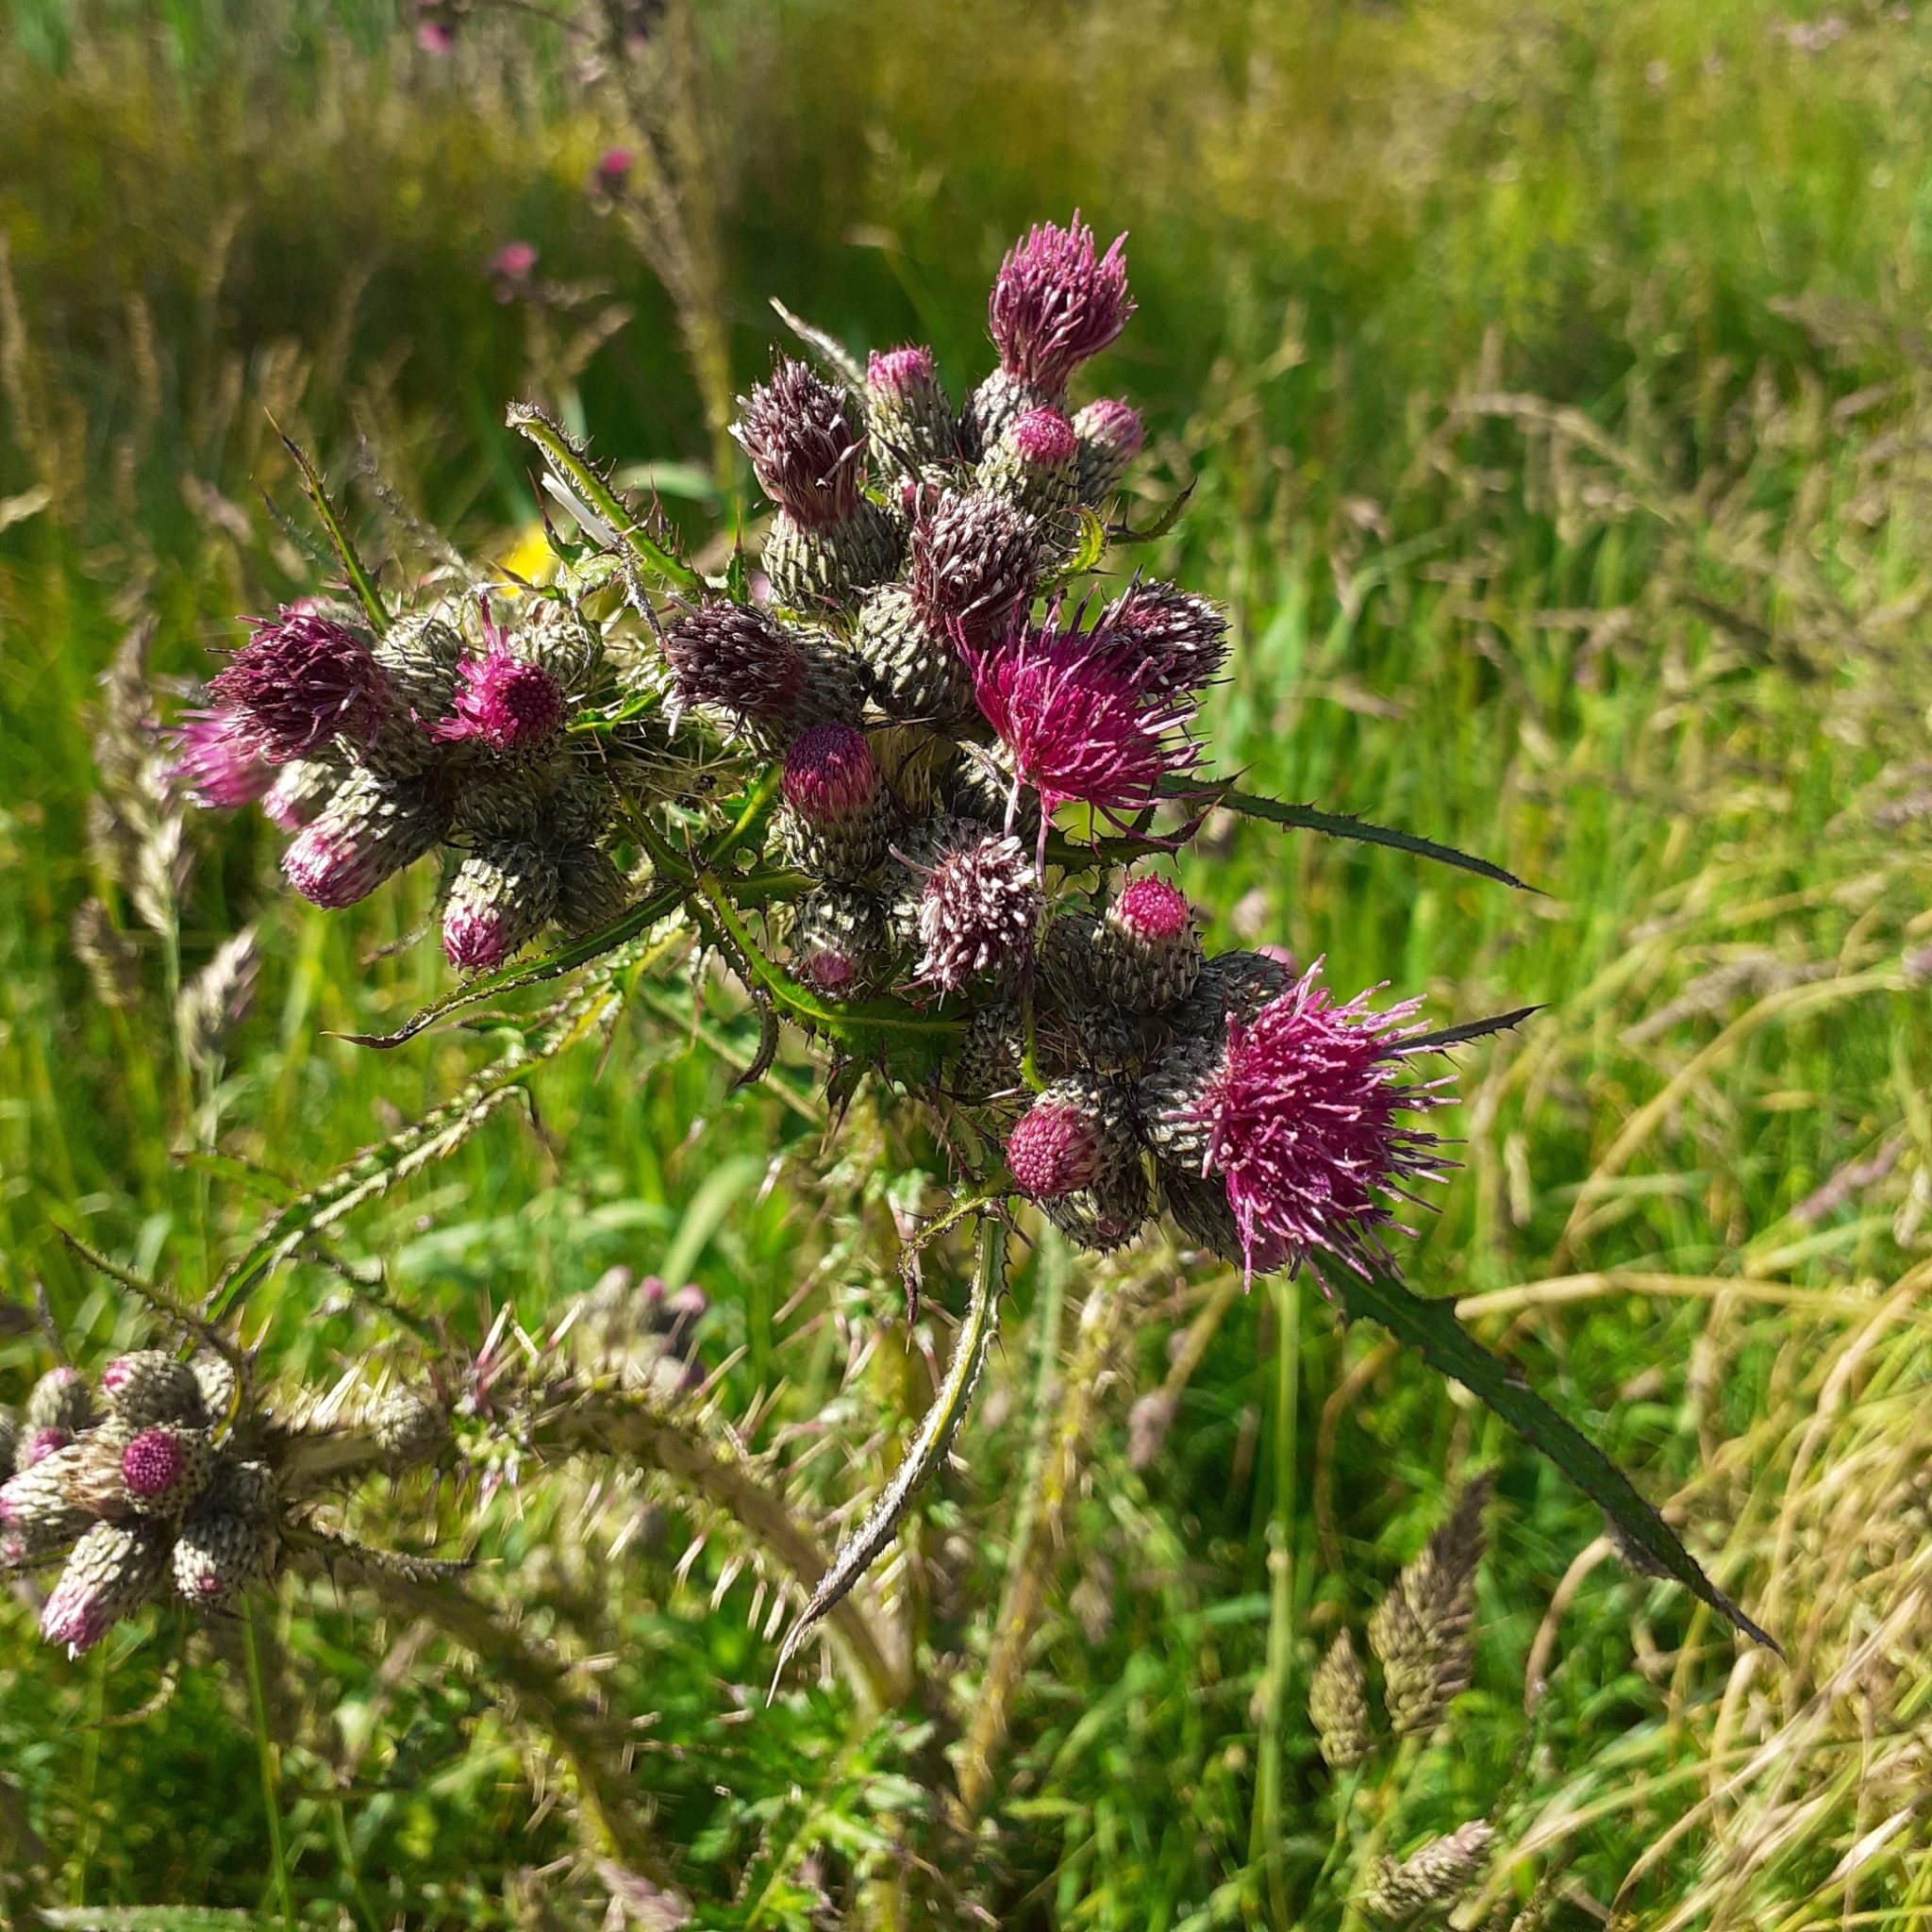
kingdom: Plantae
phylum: Tracheophyta
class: Magnoliopsida
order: Asterales
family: Asteraceae
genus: Cirsium
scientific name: Cirsium palustre
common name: Marsh thistle
